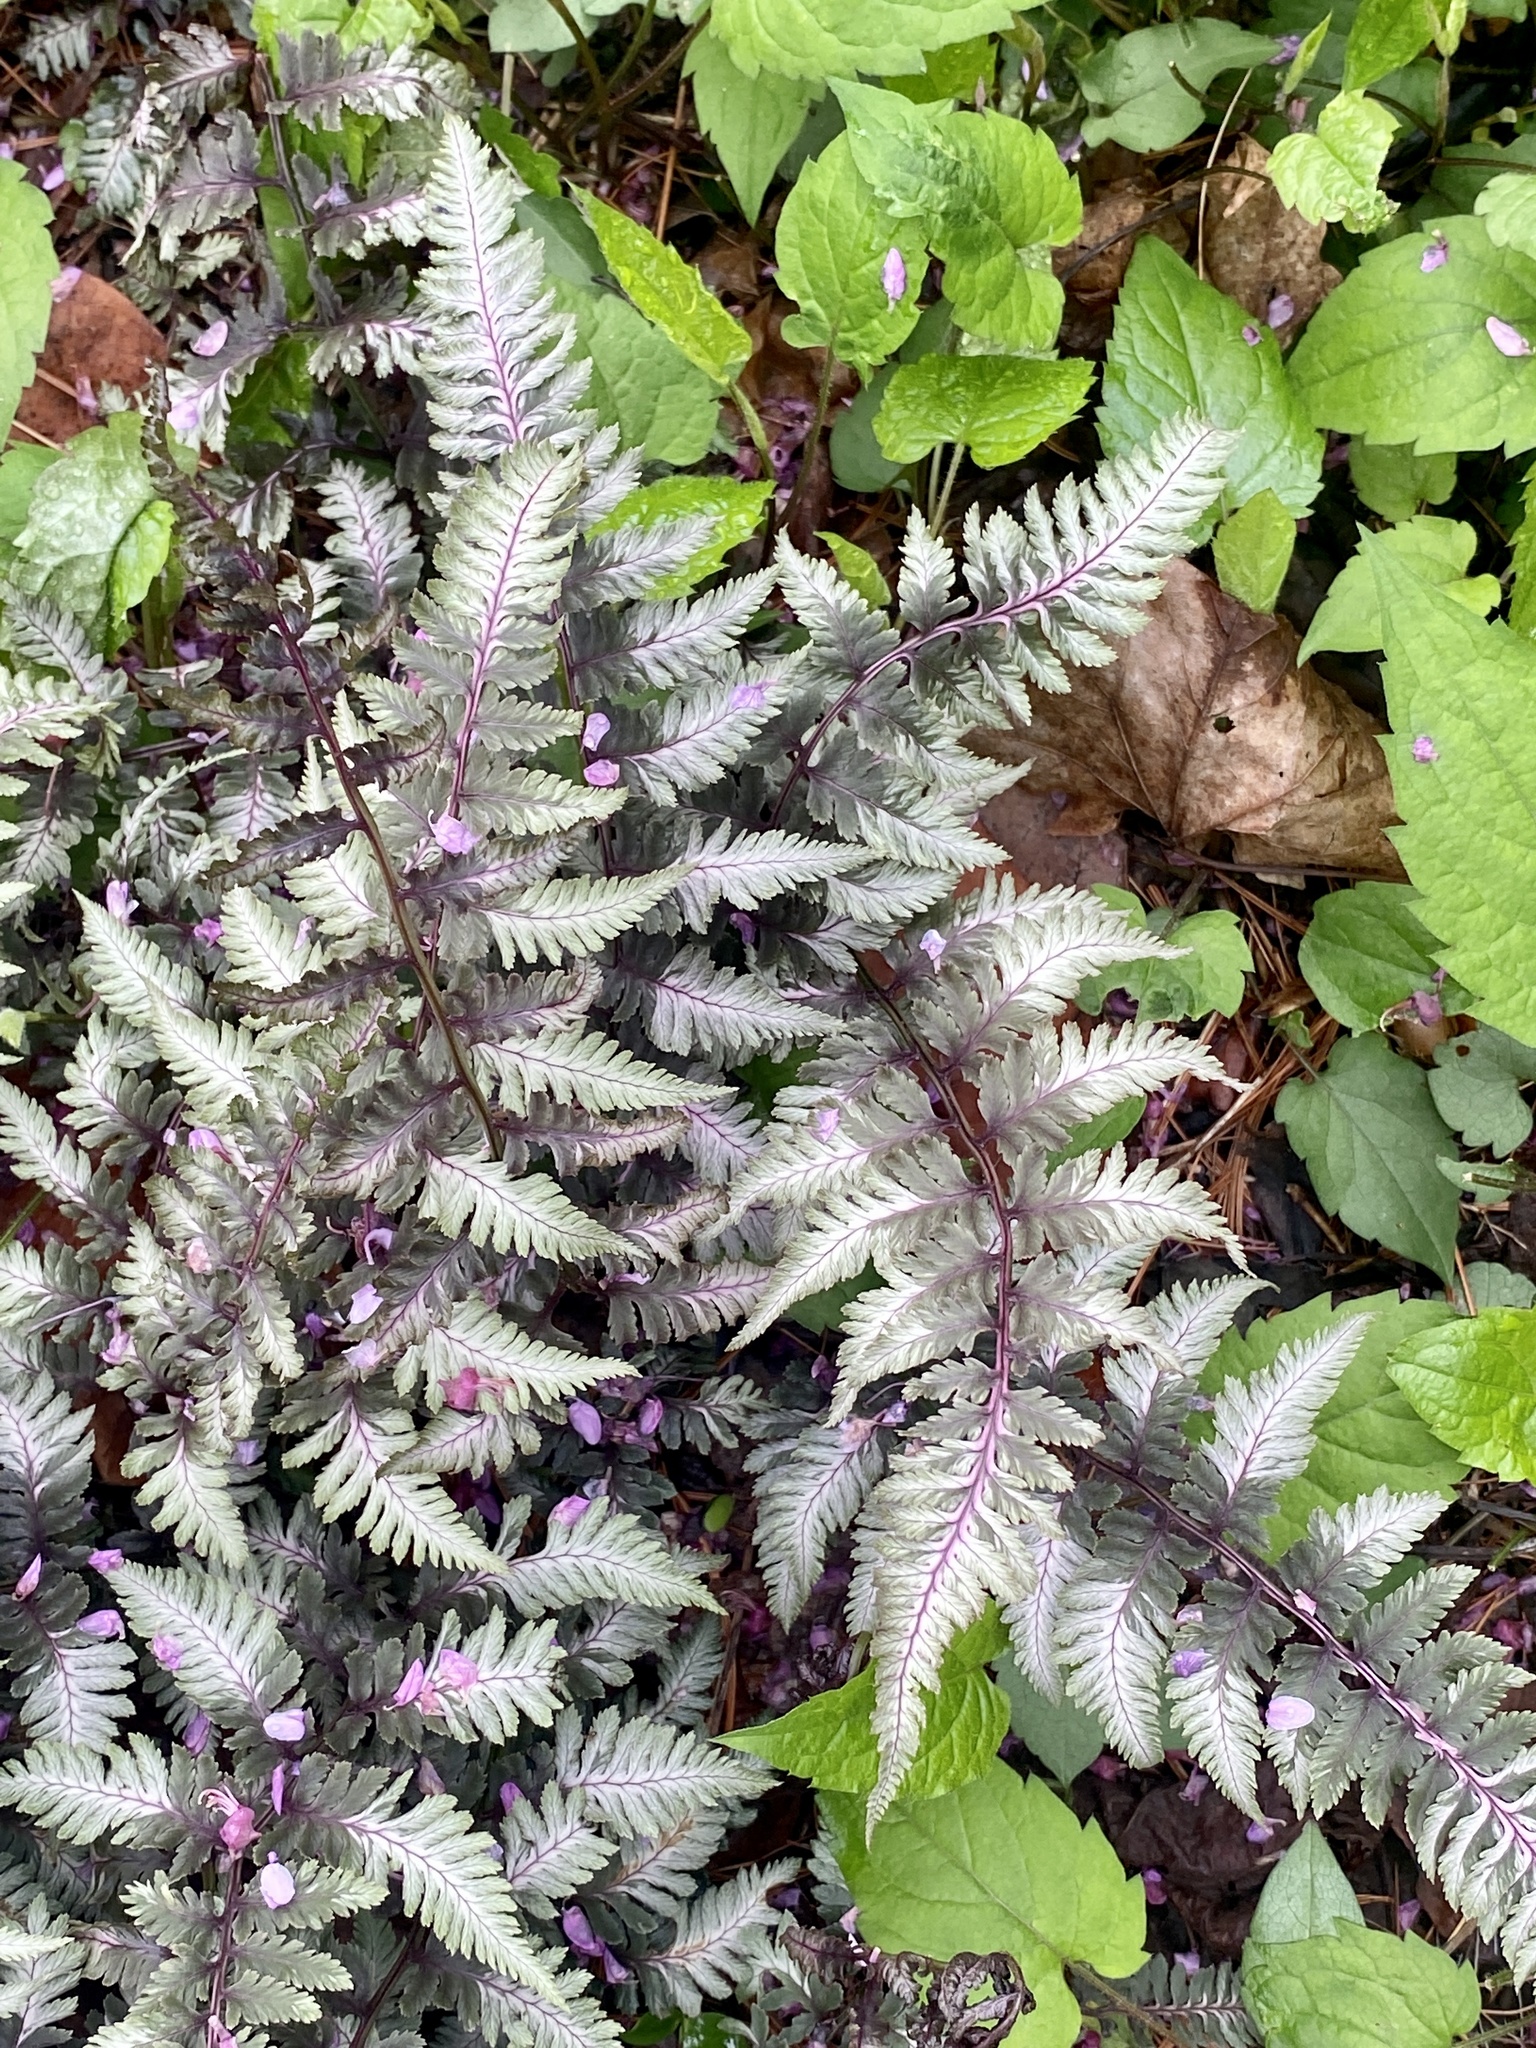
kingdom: Plantae
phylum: Tracheophyta
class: Polypodiopsida
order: Polypodiales
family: Athyriaceae
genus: Anisocampium
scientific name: Anisocampium niponicum
